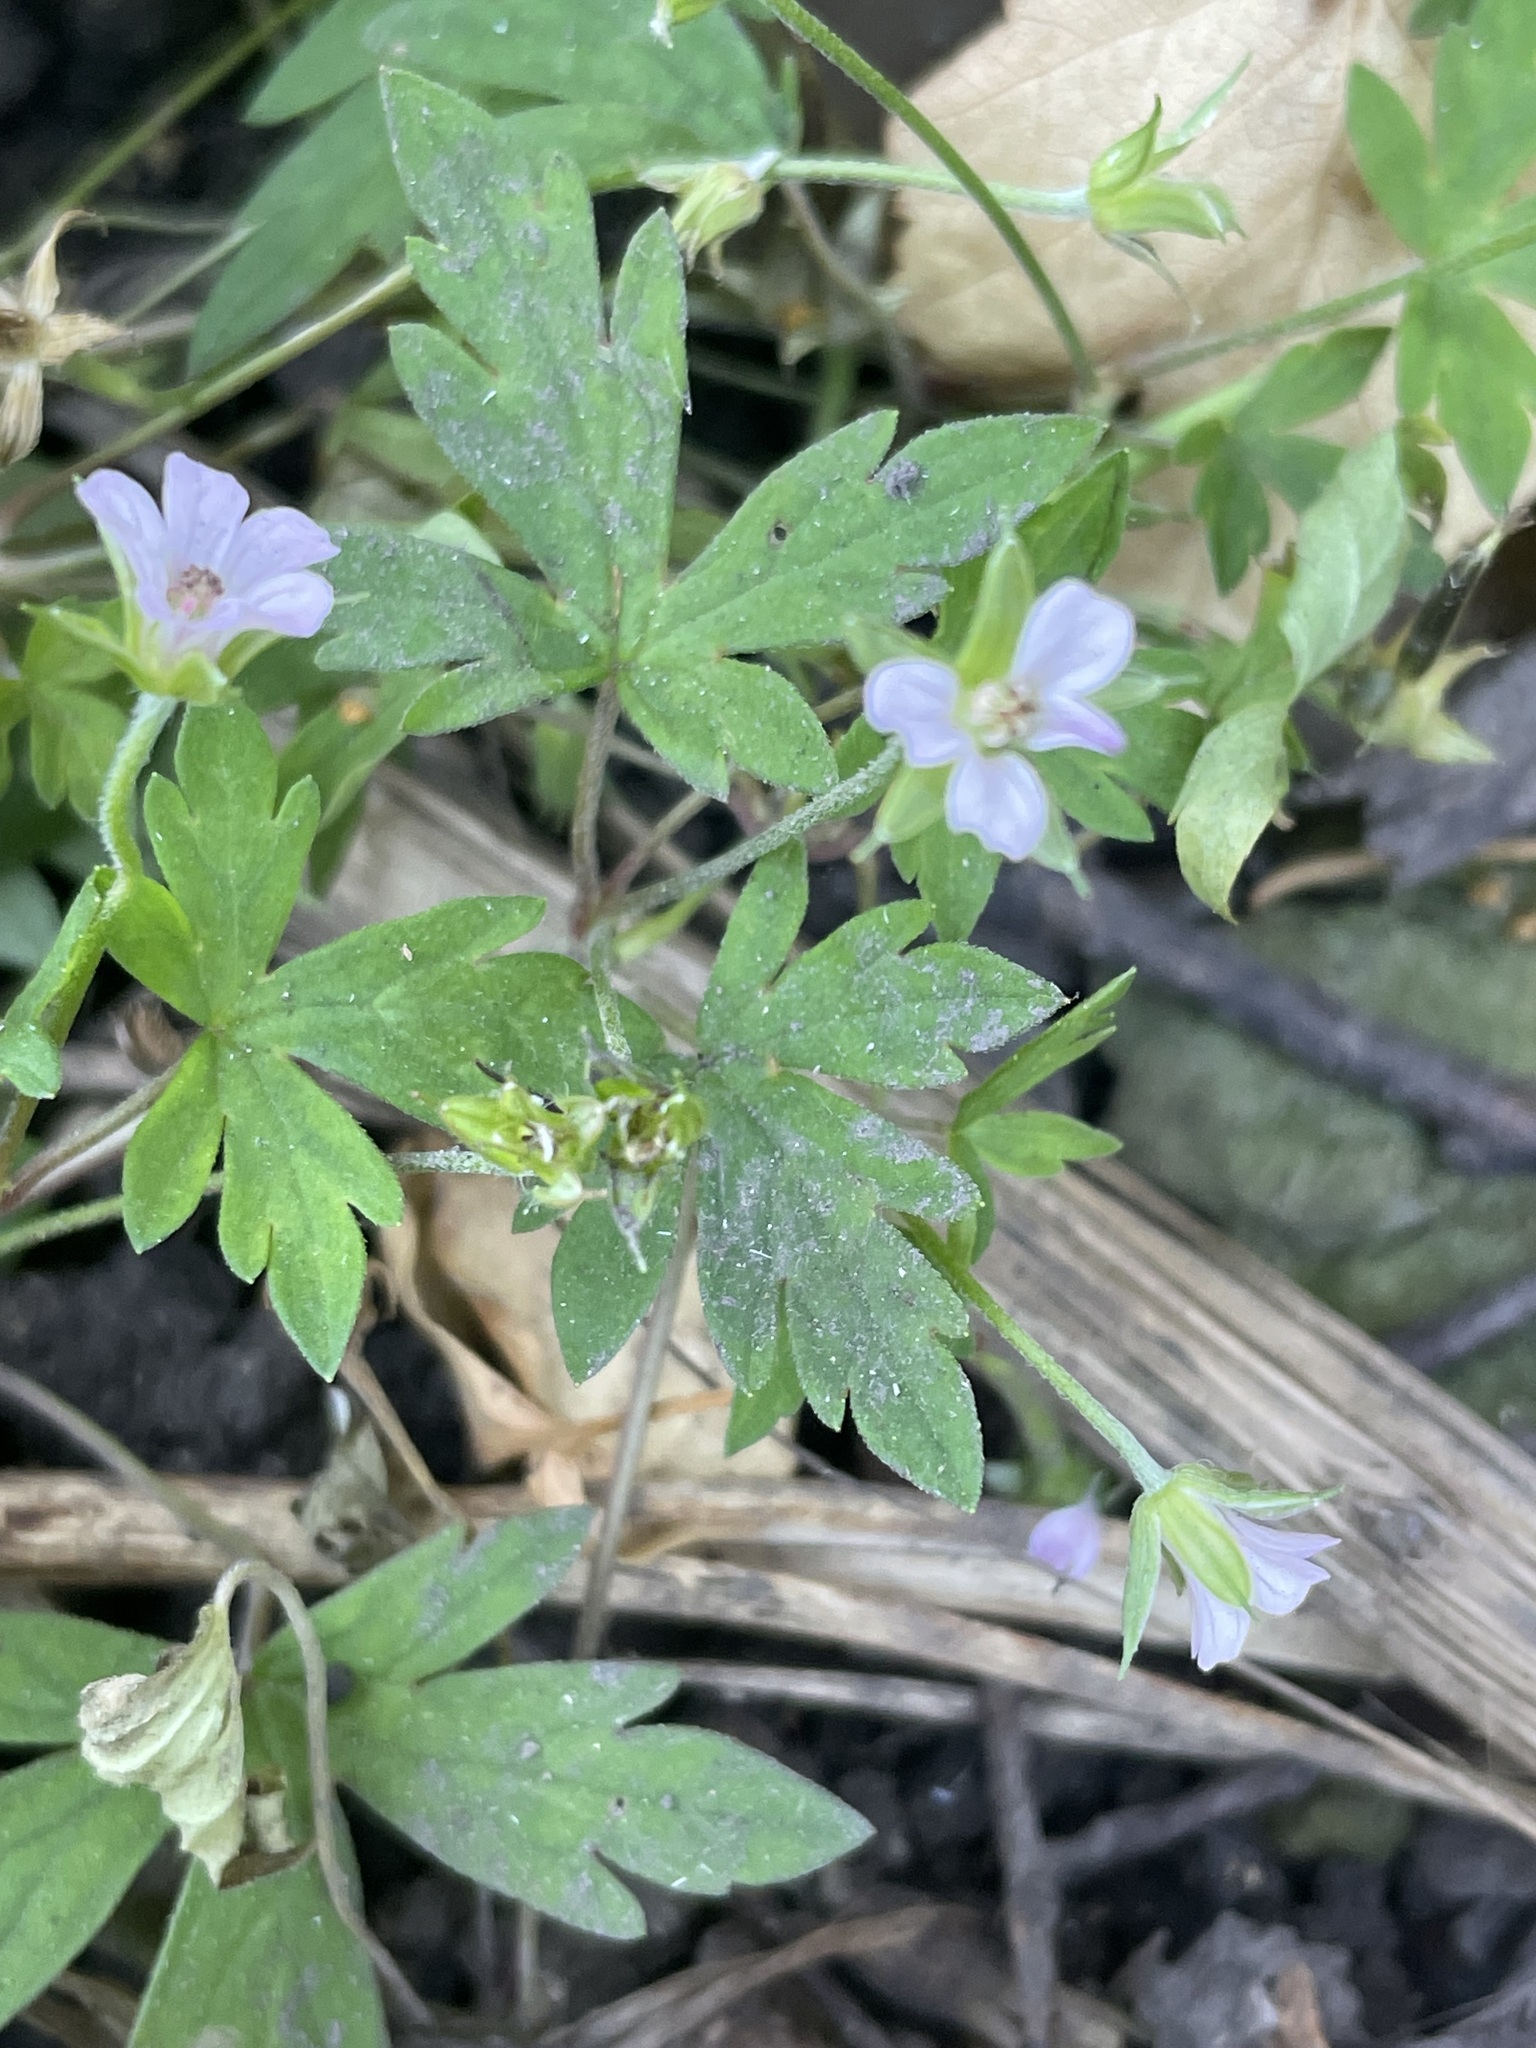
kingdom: Plantae
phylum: Tracheophyta
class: Magnoliopsida
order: Geraniales
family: Geraniaceae
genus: Geranium
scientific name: Geranium sibiricum
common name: Siberian crane's-bill
